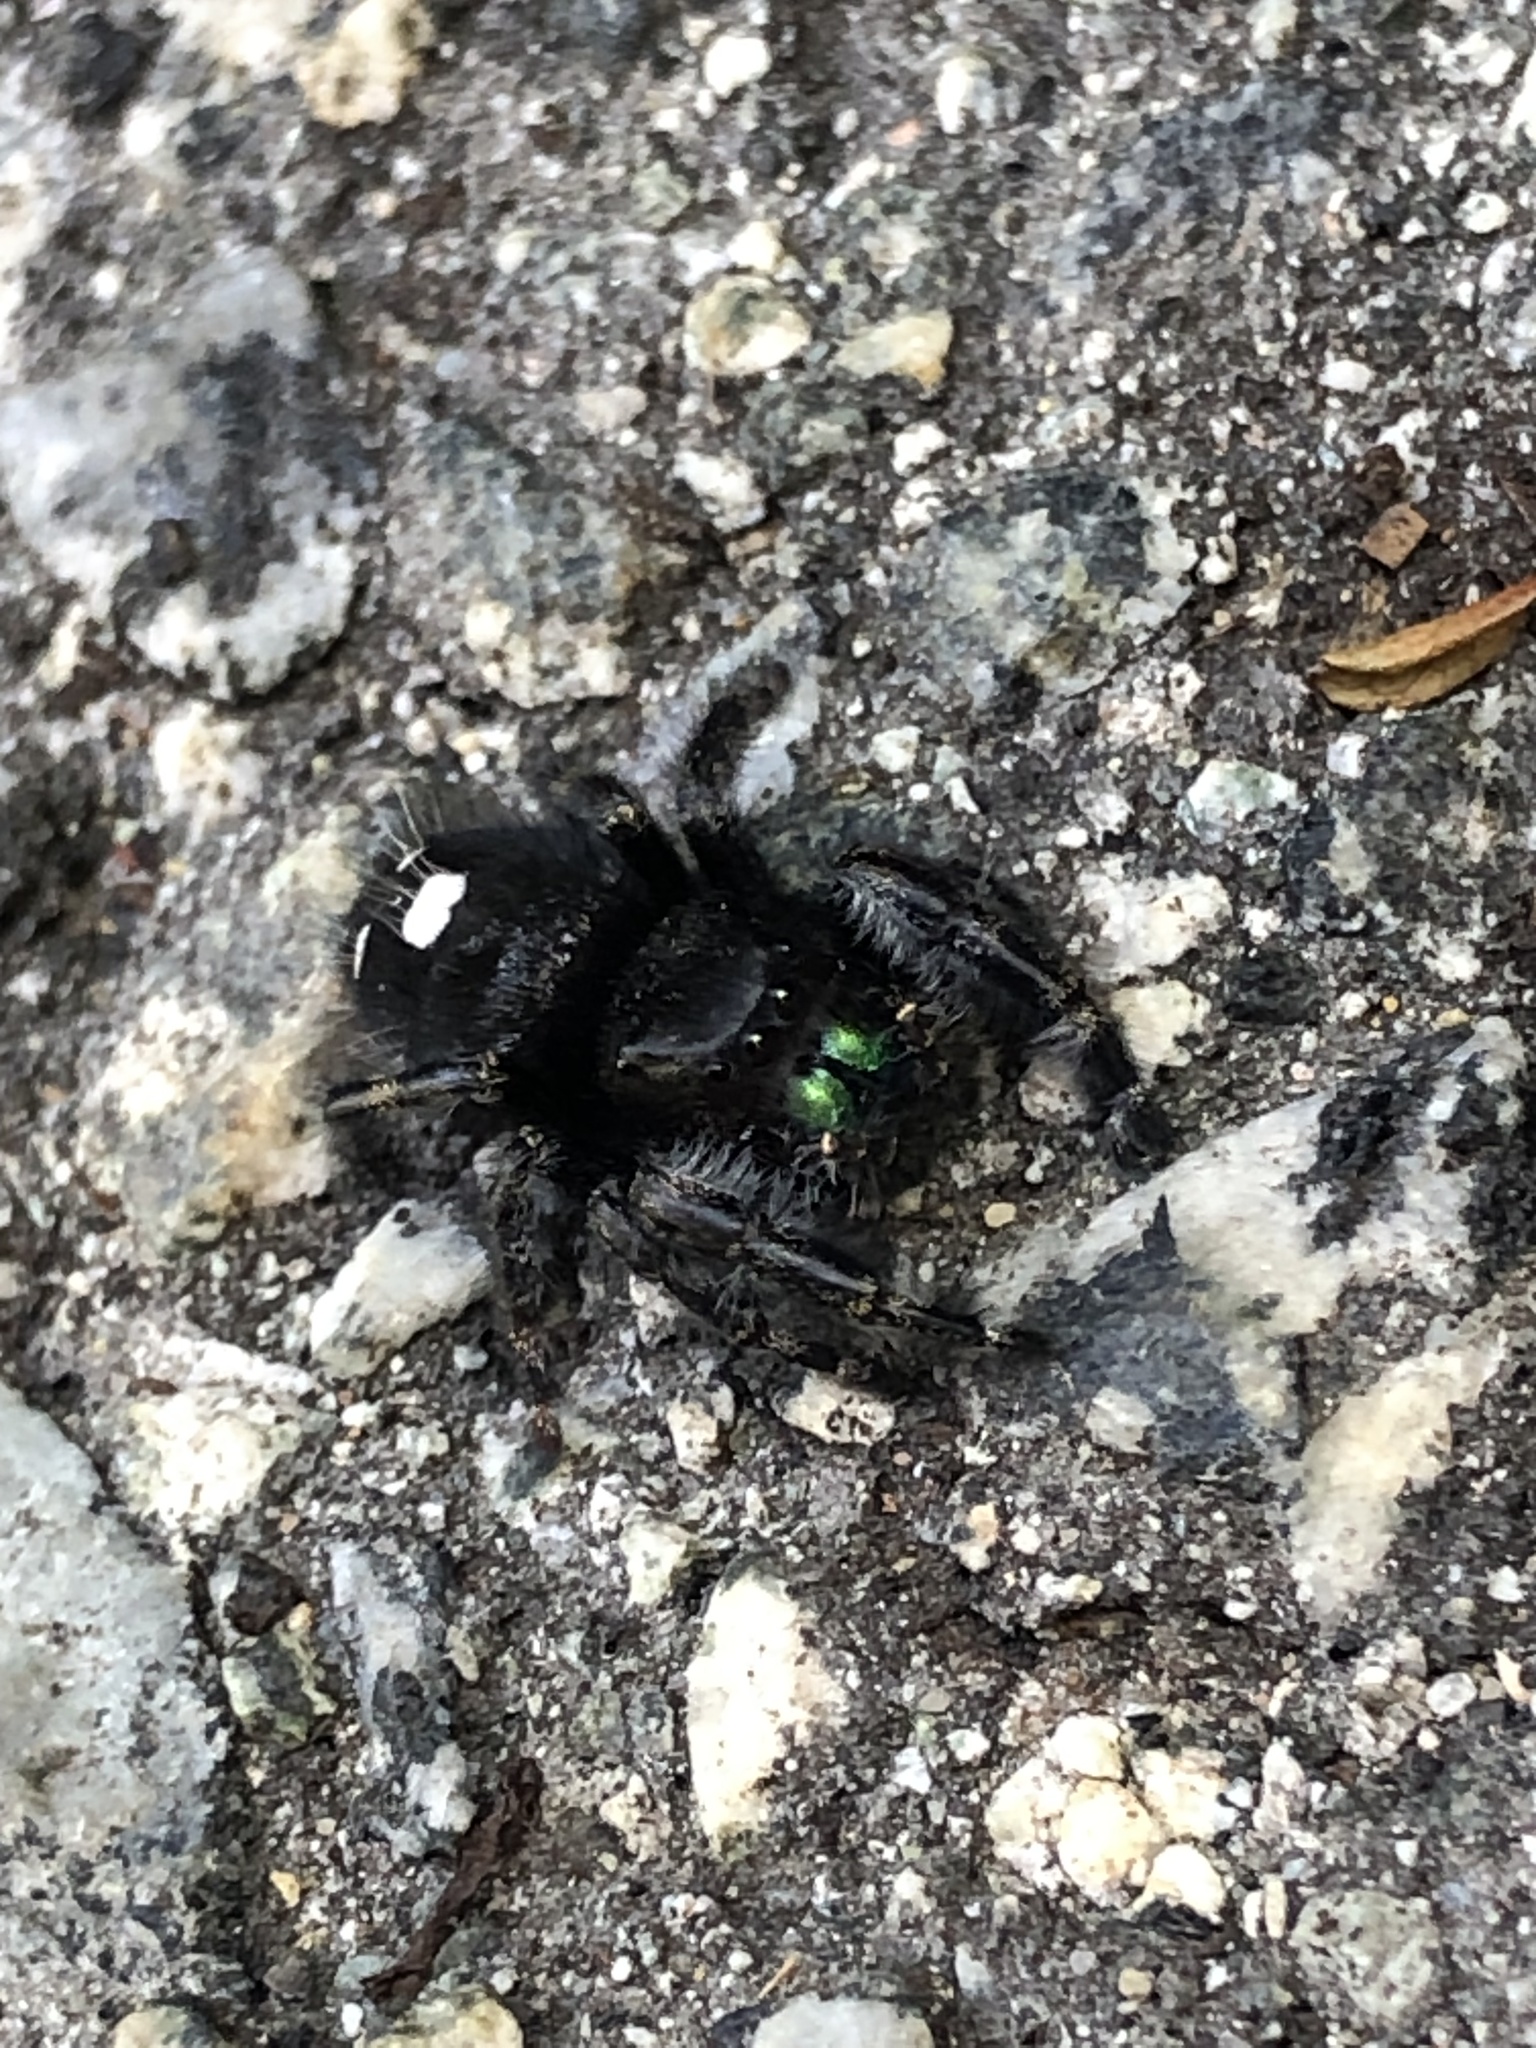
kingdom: Animalia
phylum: Arthropoda
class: Arachnida
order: Araneae
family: Salticidae
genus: Phidippus
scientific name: Phidippus audax
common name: Bold jumper
